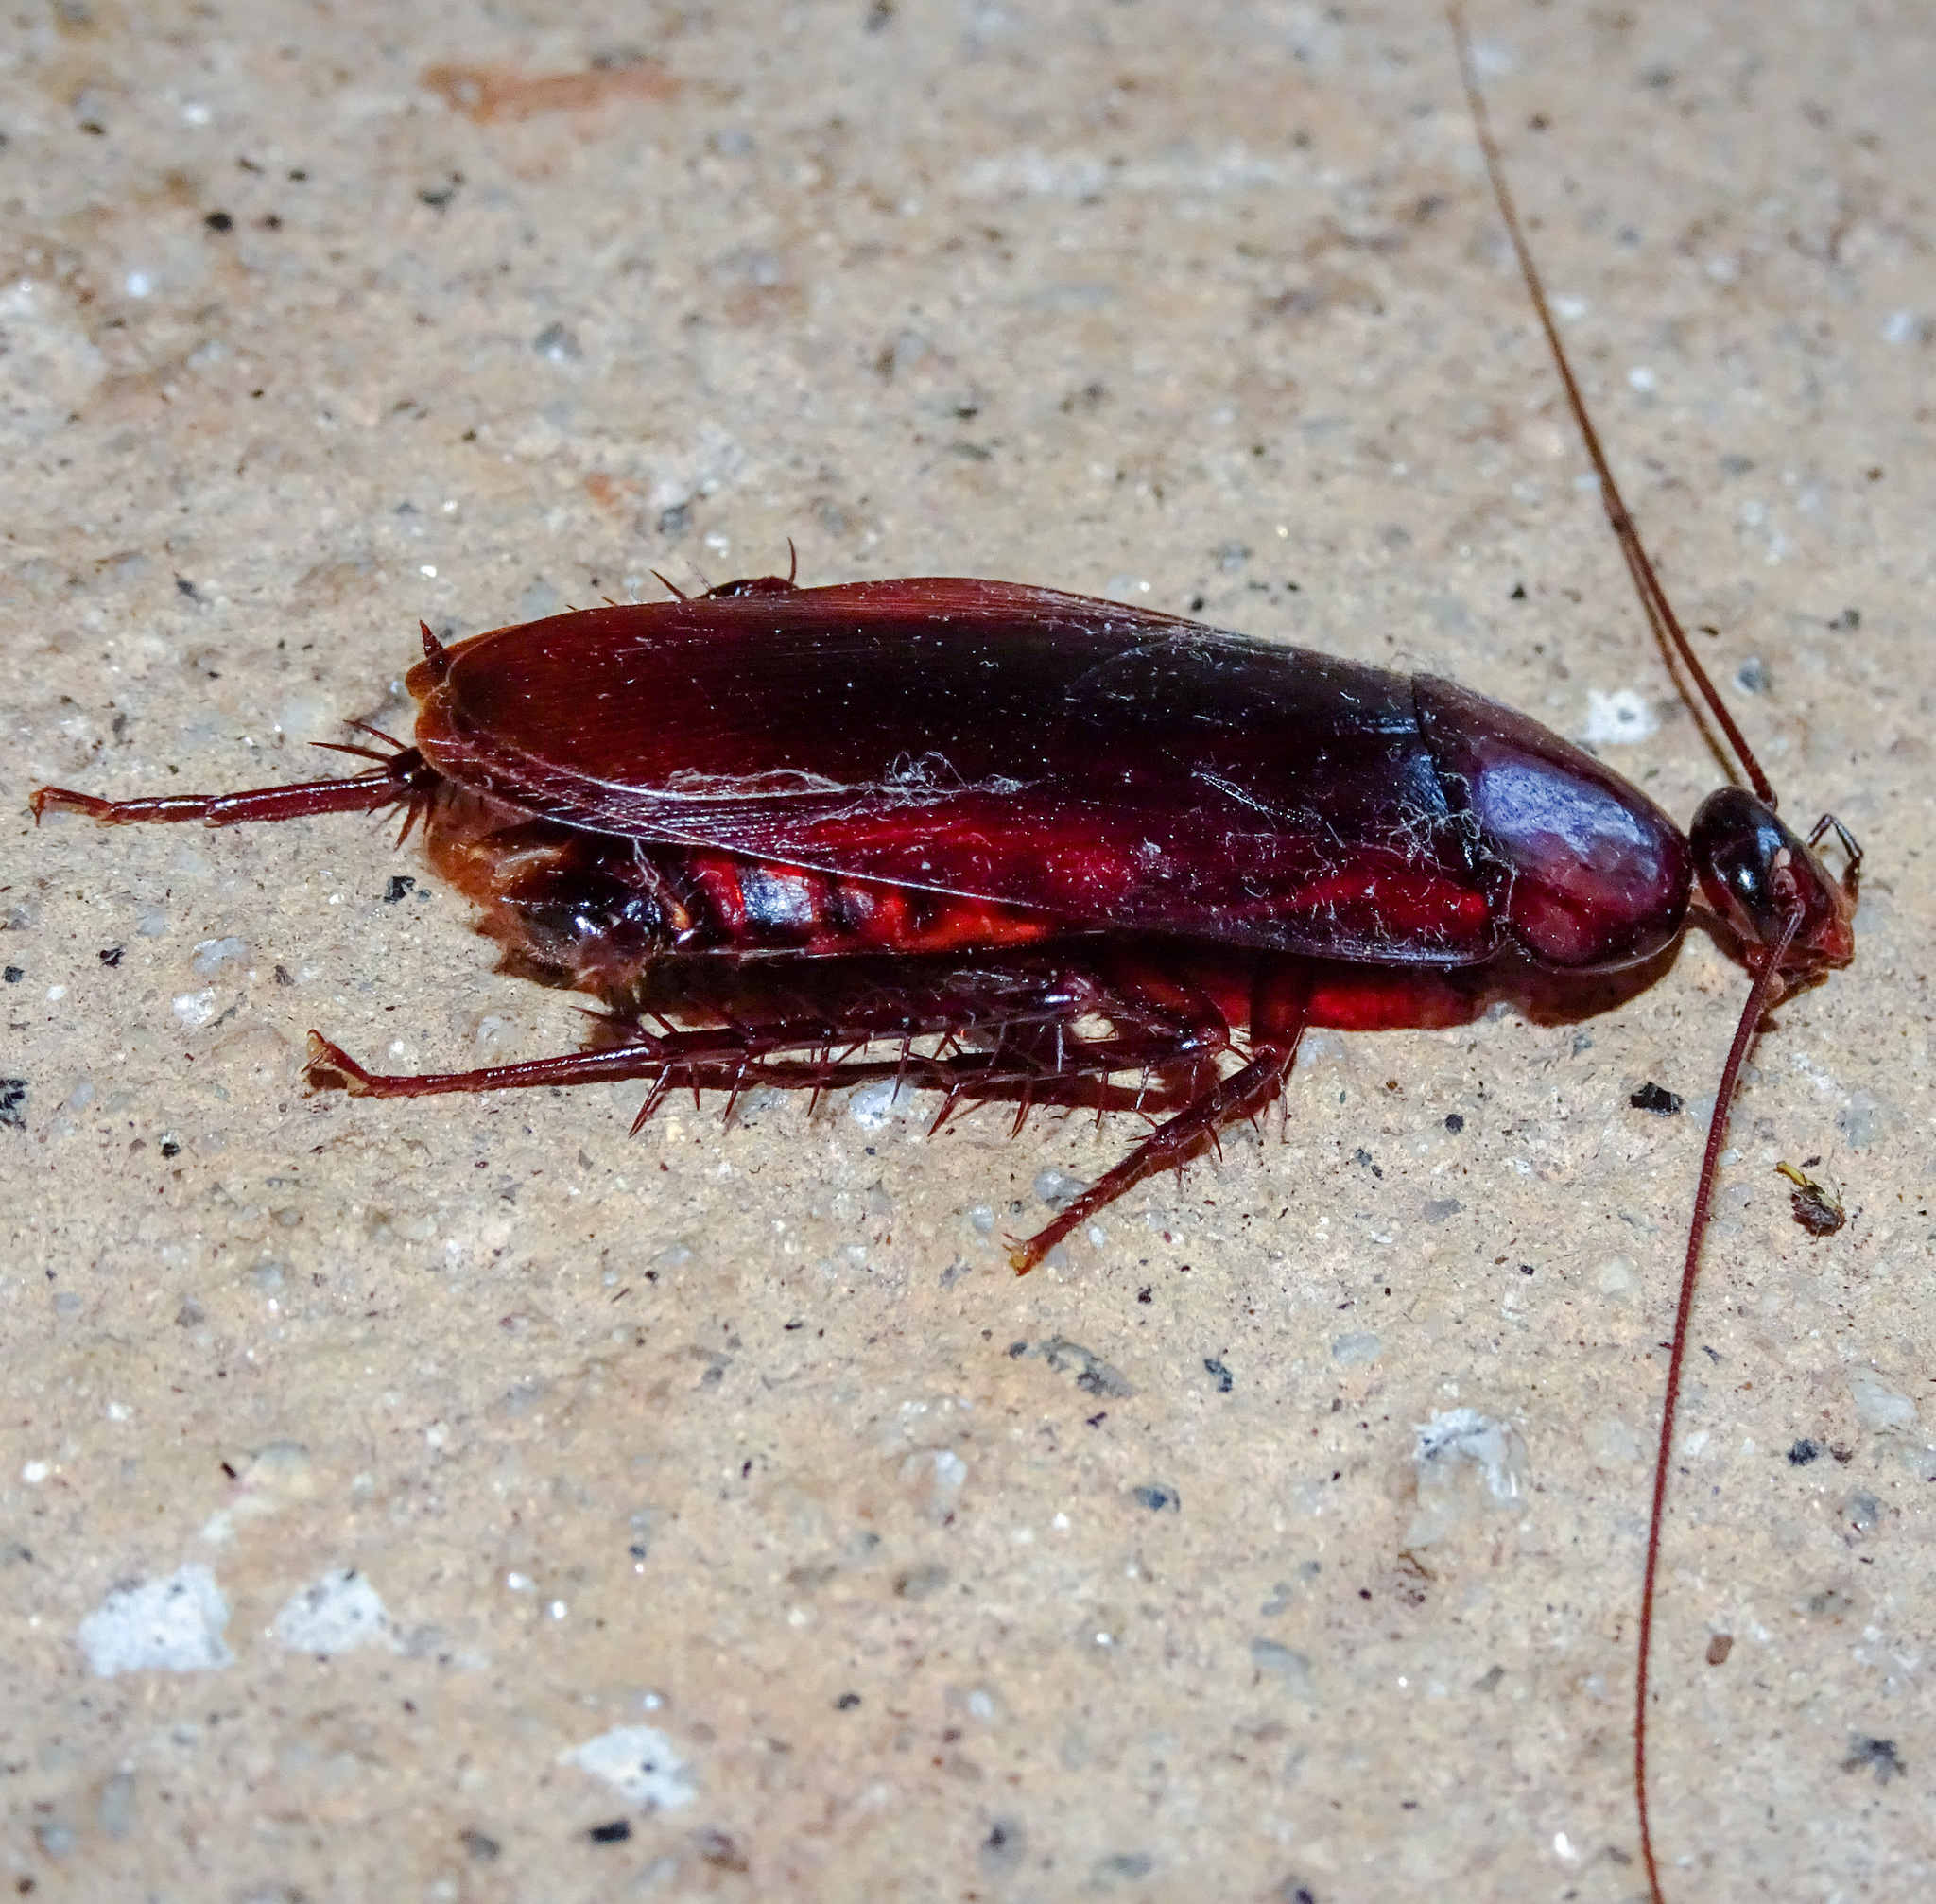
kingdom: Animalia
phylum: Arthropoda
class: Insecta
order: Blattodea
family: Blattidae
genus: Periplaneta
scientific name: Periplaneta fuliginosa
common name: Smokeybrown cockroad
